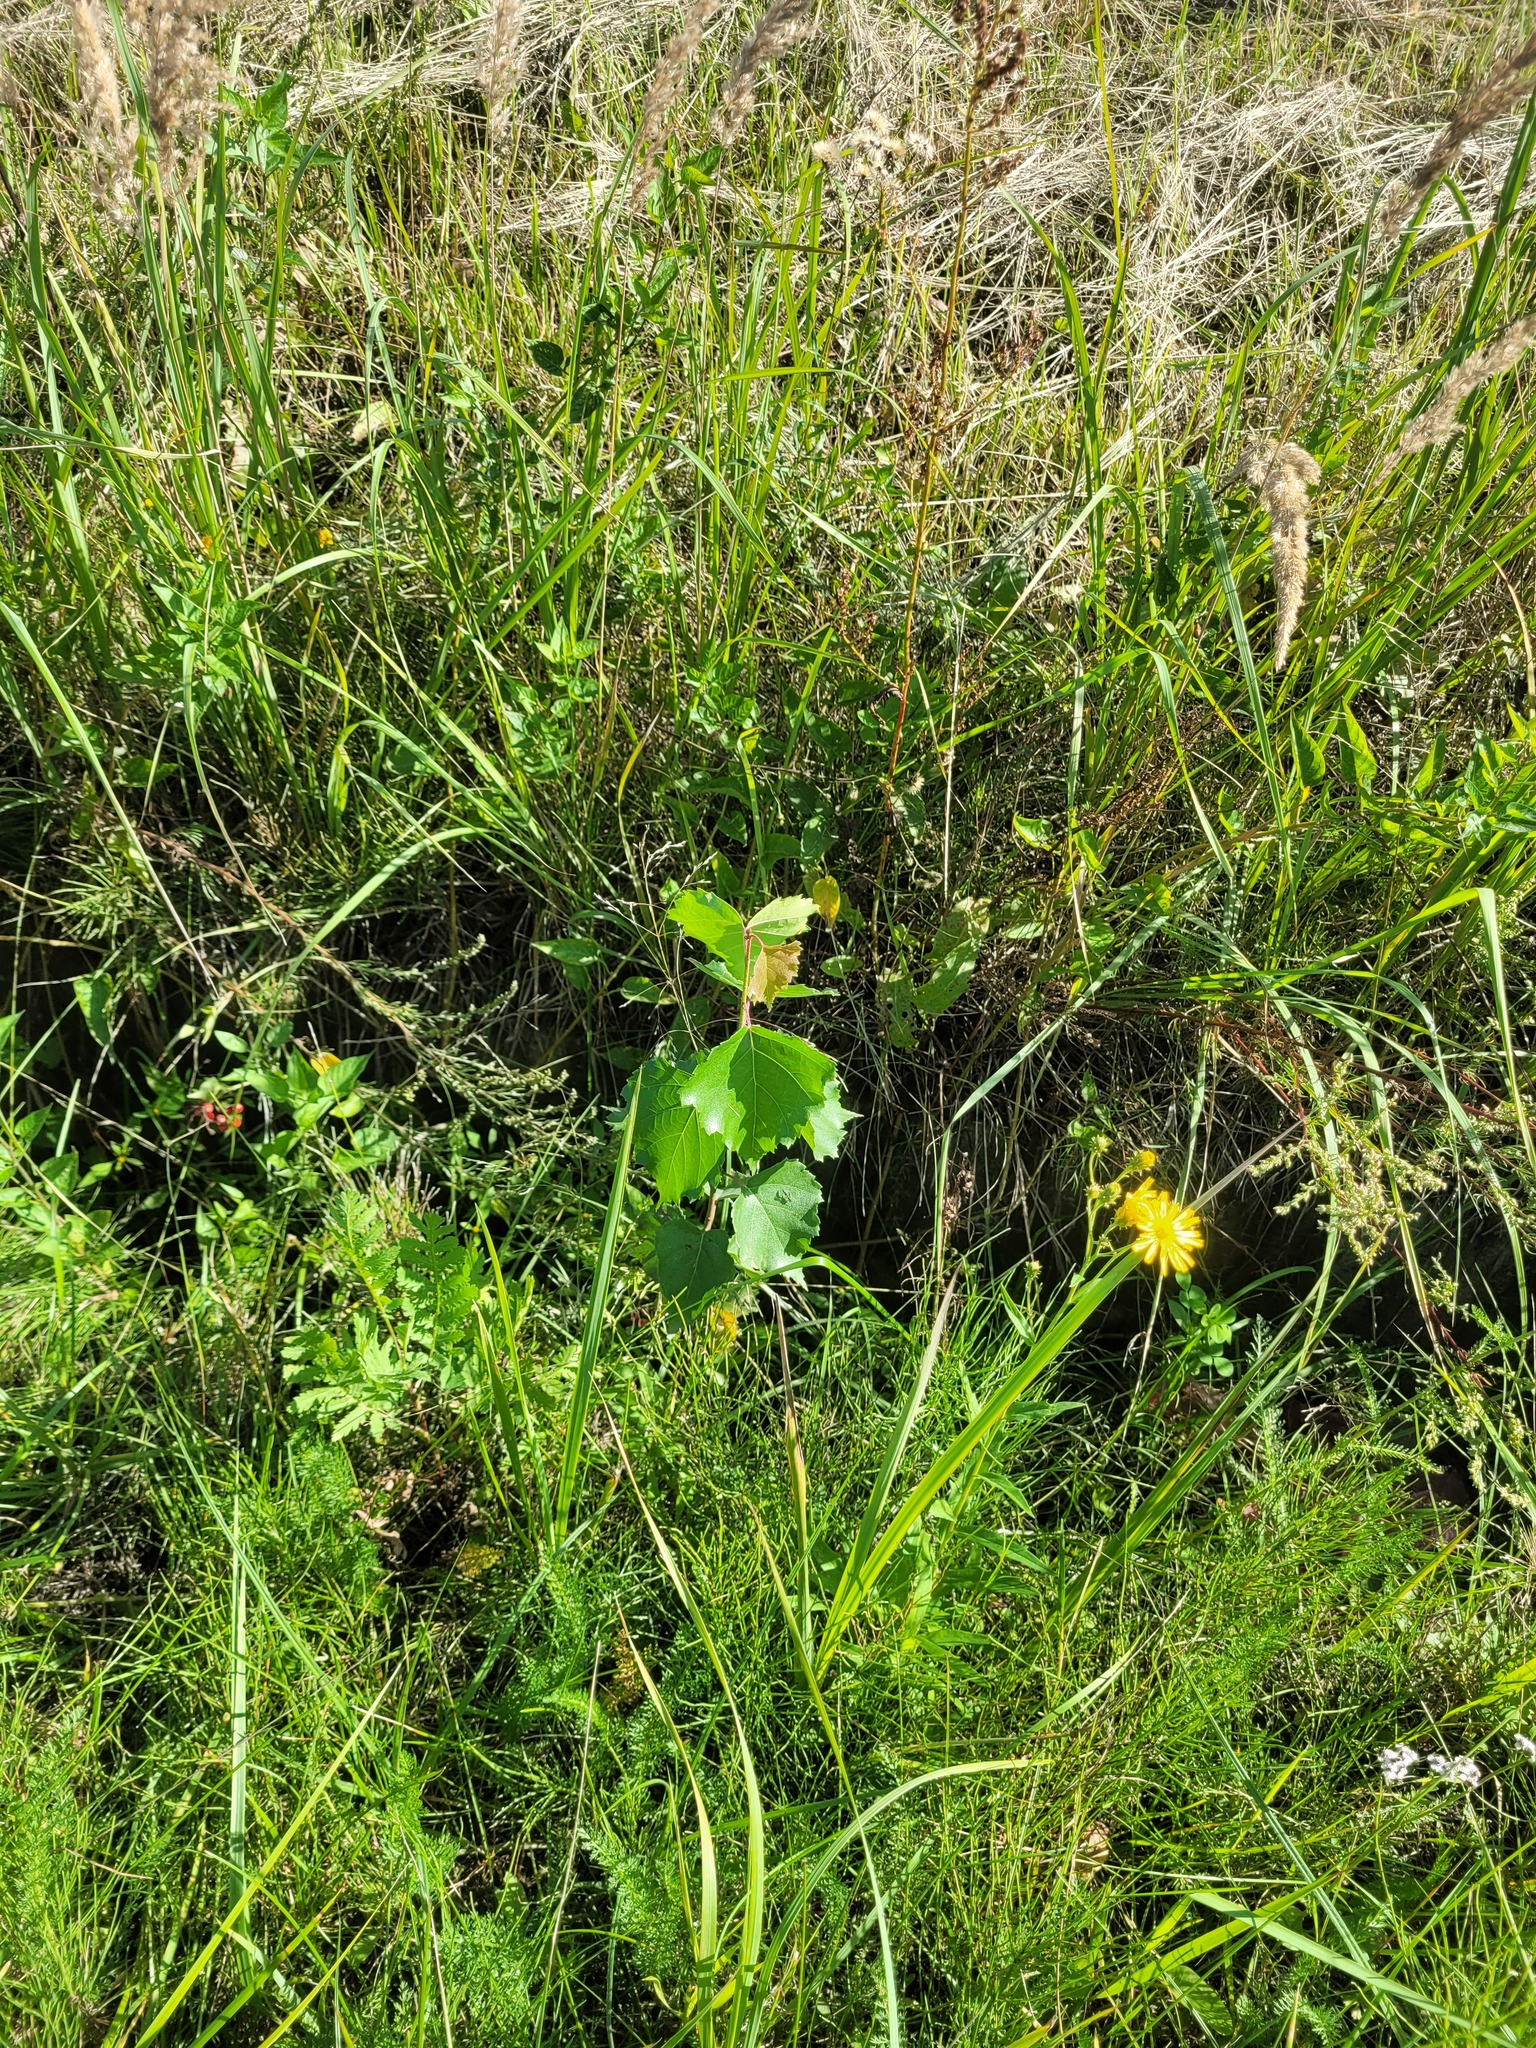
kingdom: Plantae
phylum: Tracheophyta
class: Magnoliopsida
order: Fagales
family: Betulaceae
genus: Betula
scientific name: Betula pendula
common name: Silver birch
